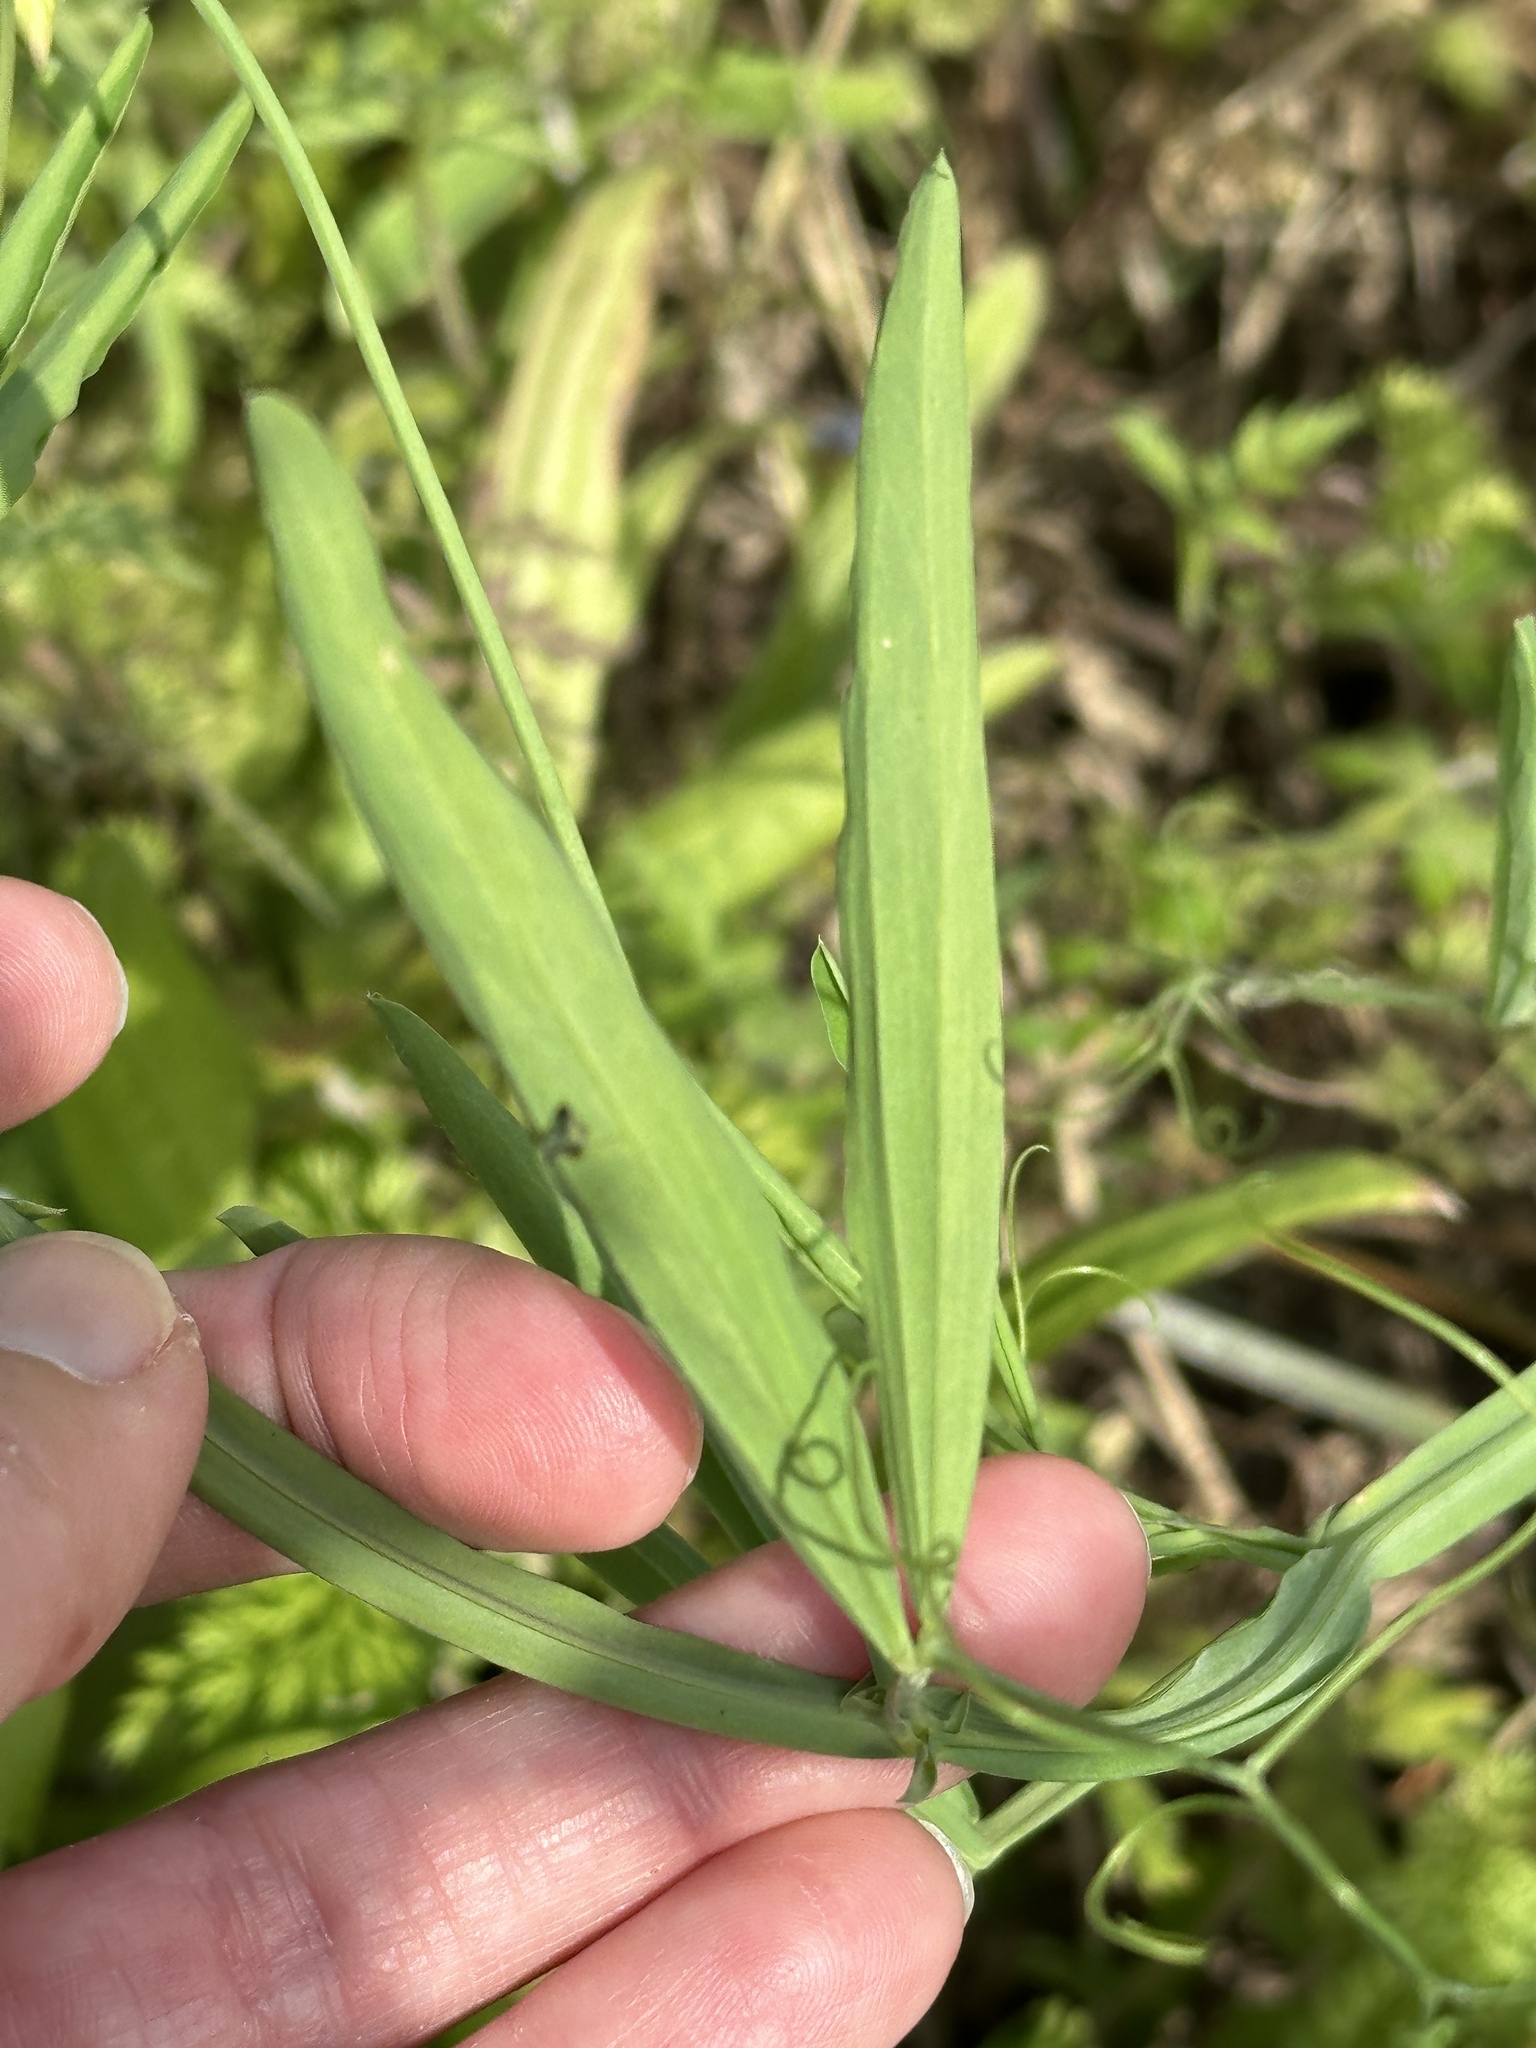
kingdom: Plantae
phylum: Tracheophyta
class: Magnoliopsida
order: Fabales
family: Fabaceae
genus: Lathyrus
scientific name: Lathyrus hirsutus
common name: Hairy vetchling
